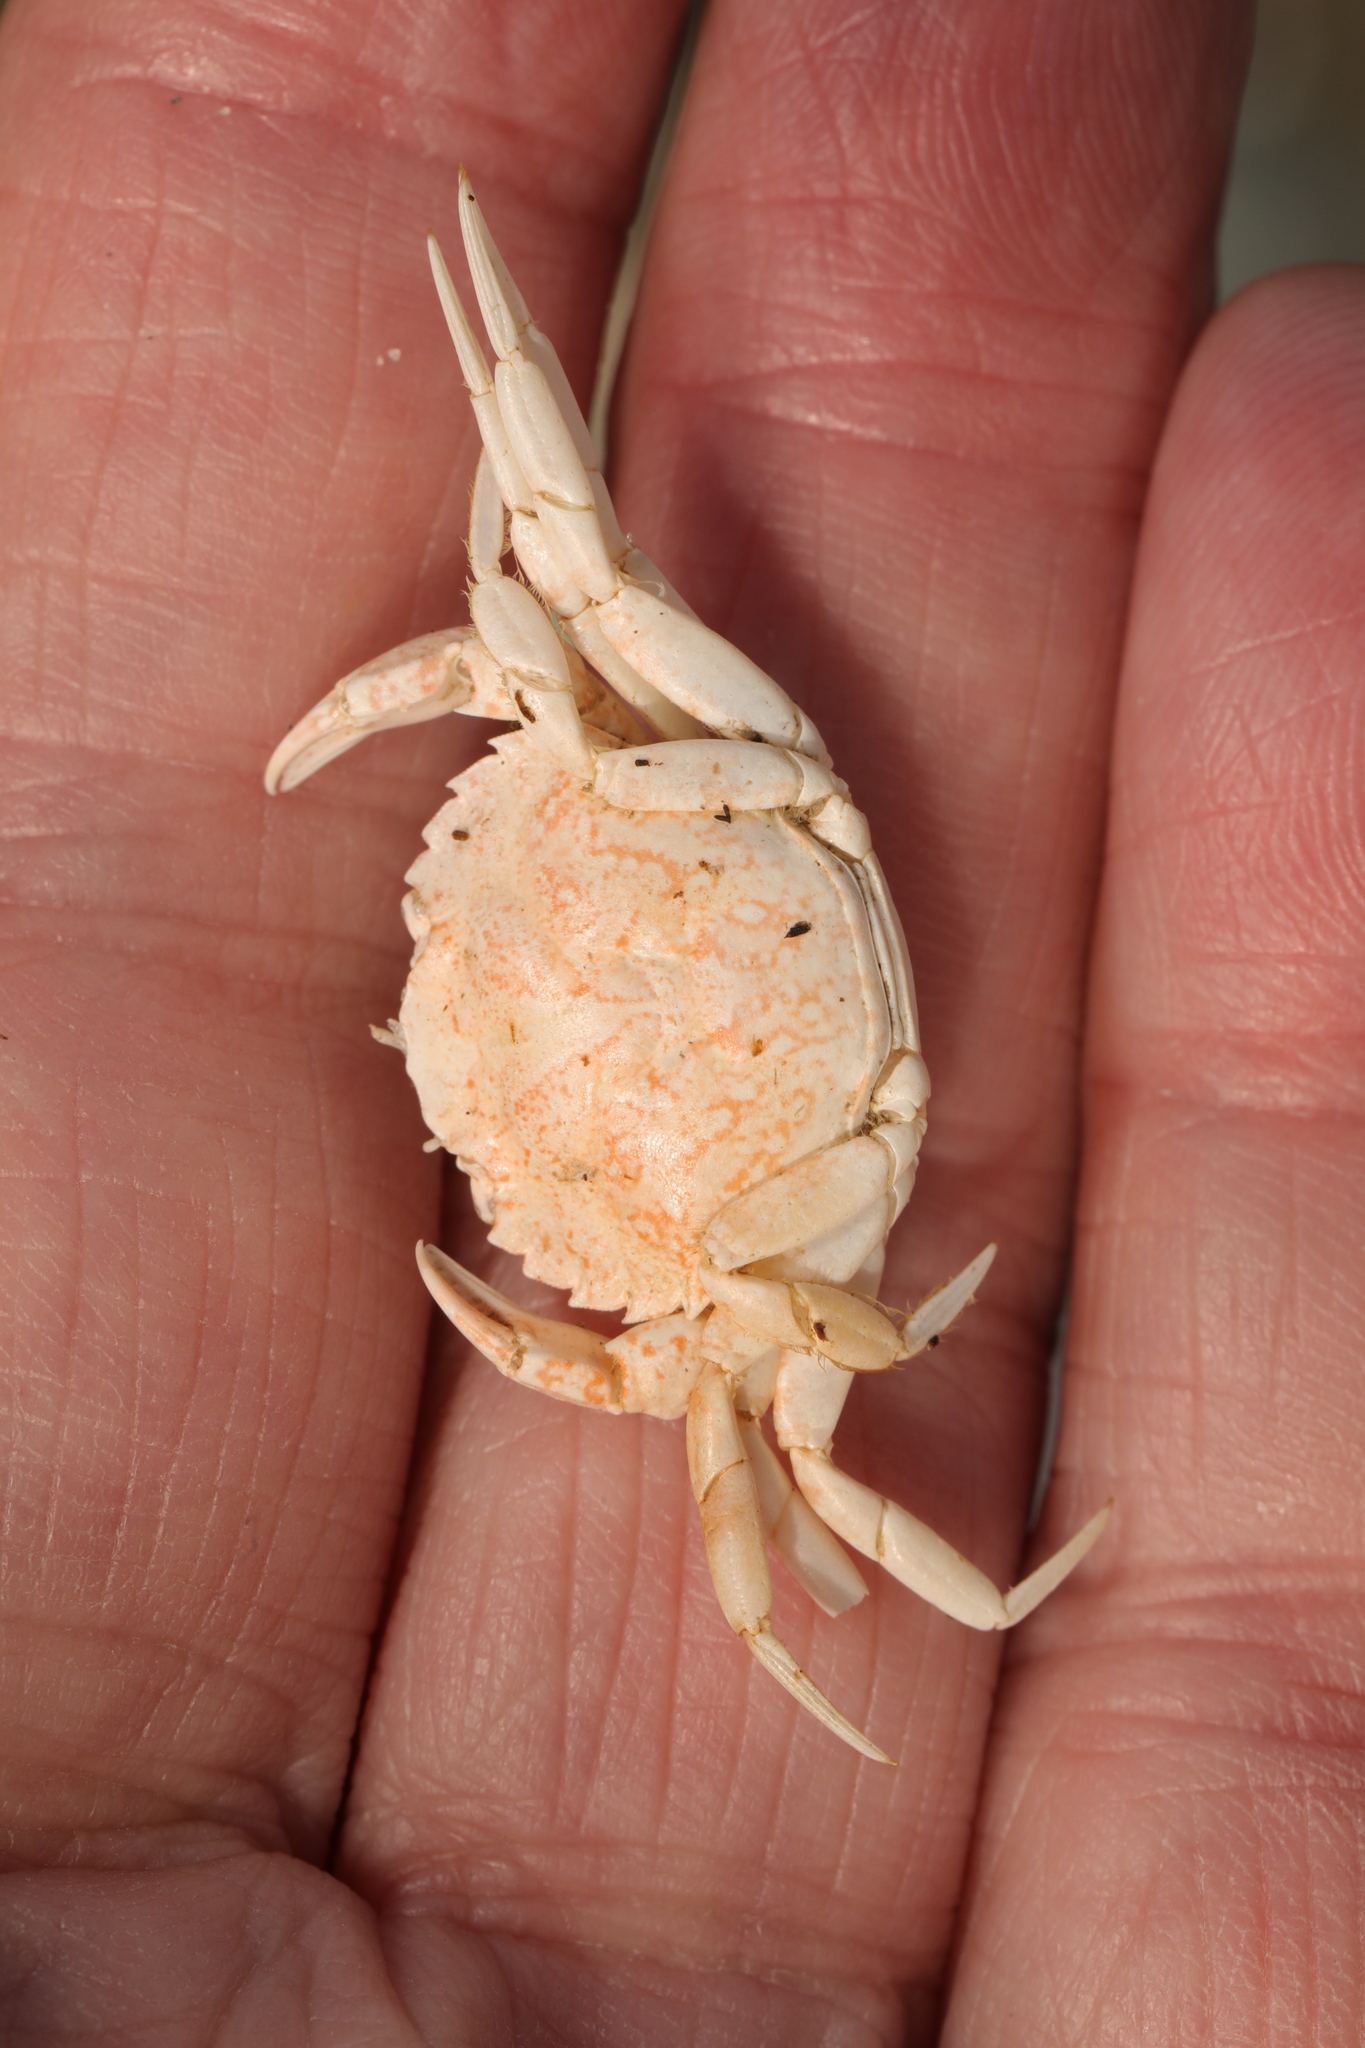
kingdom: Animalia
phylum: Arthropoda
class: Malacostraca
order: Decapoda
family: Carcinidae
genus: Carcinus
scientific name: Carcinus maenas
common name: European green crab
